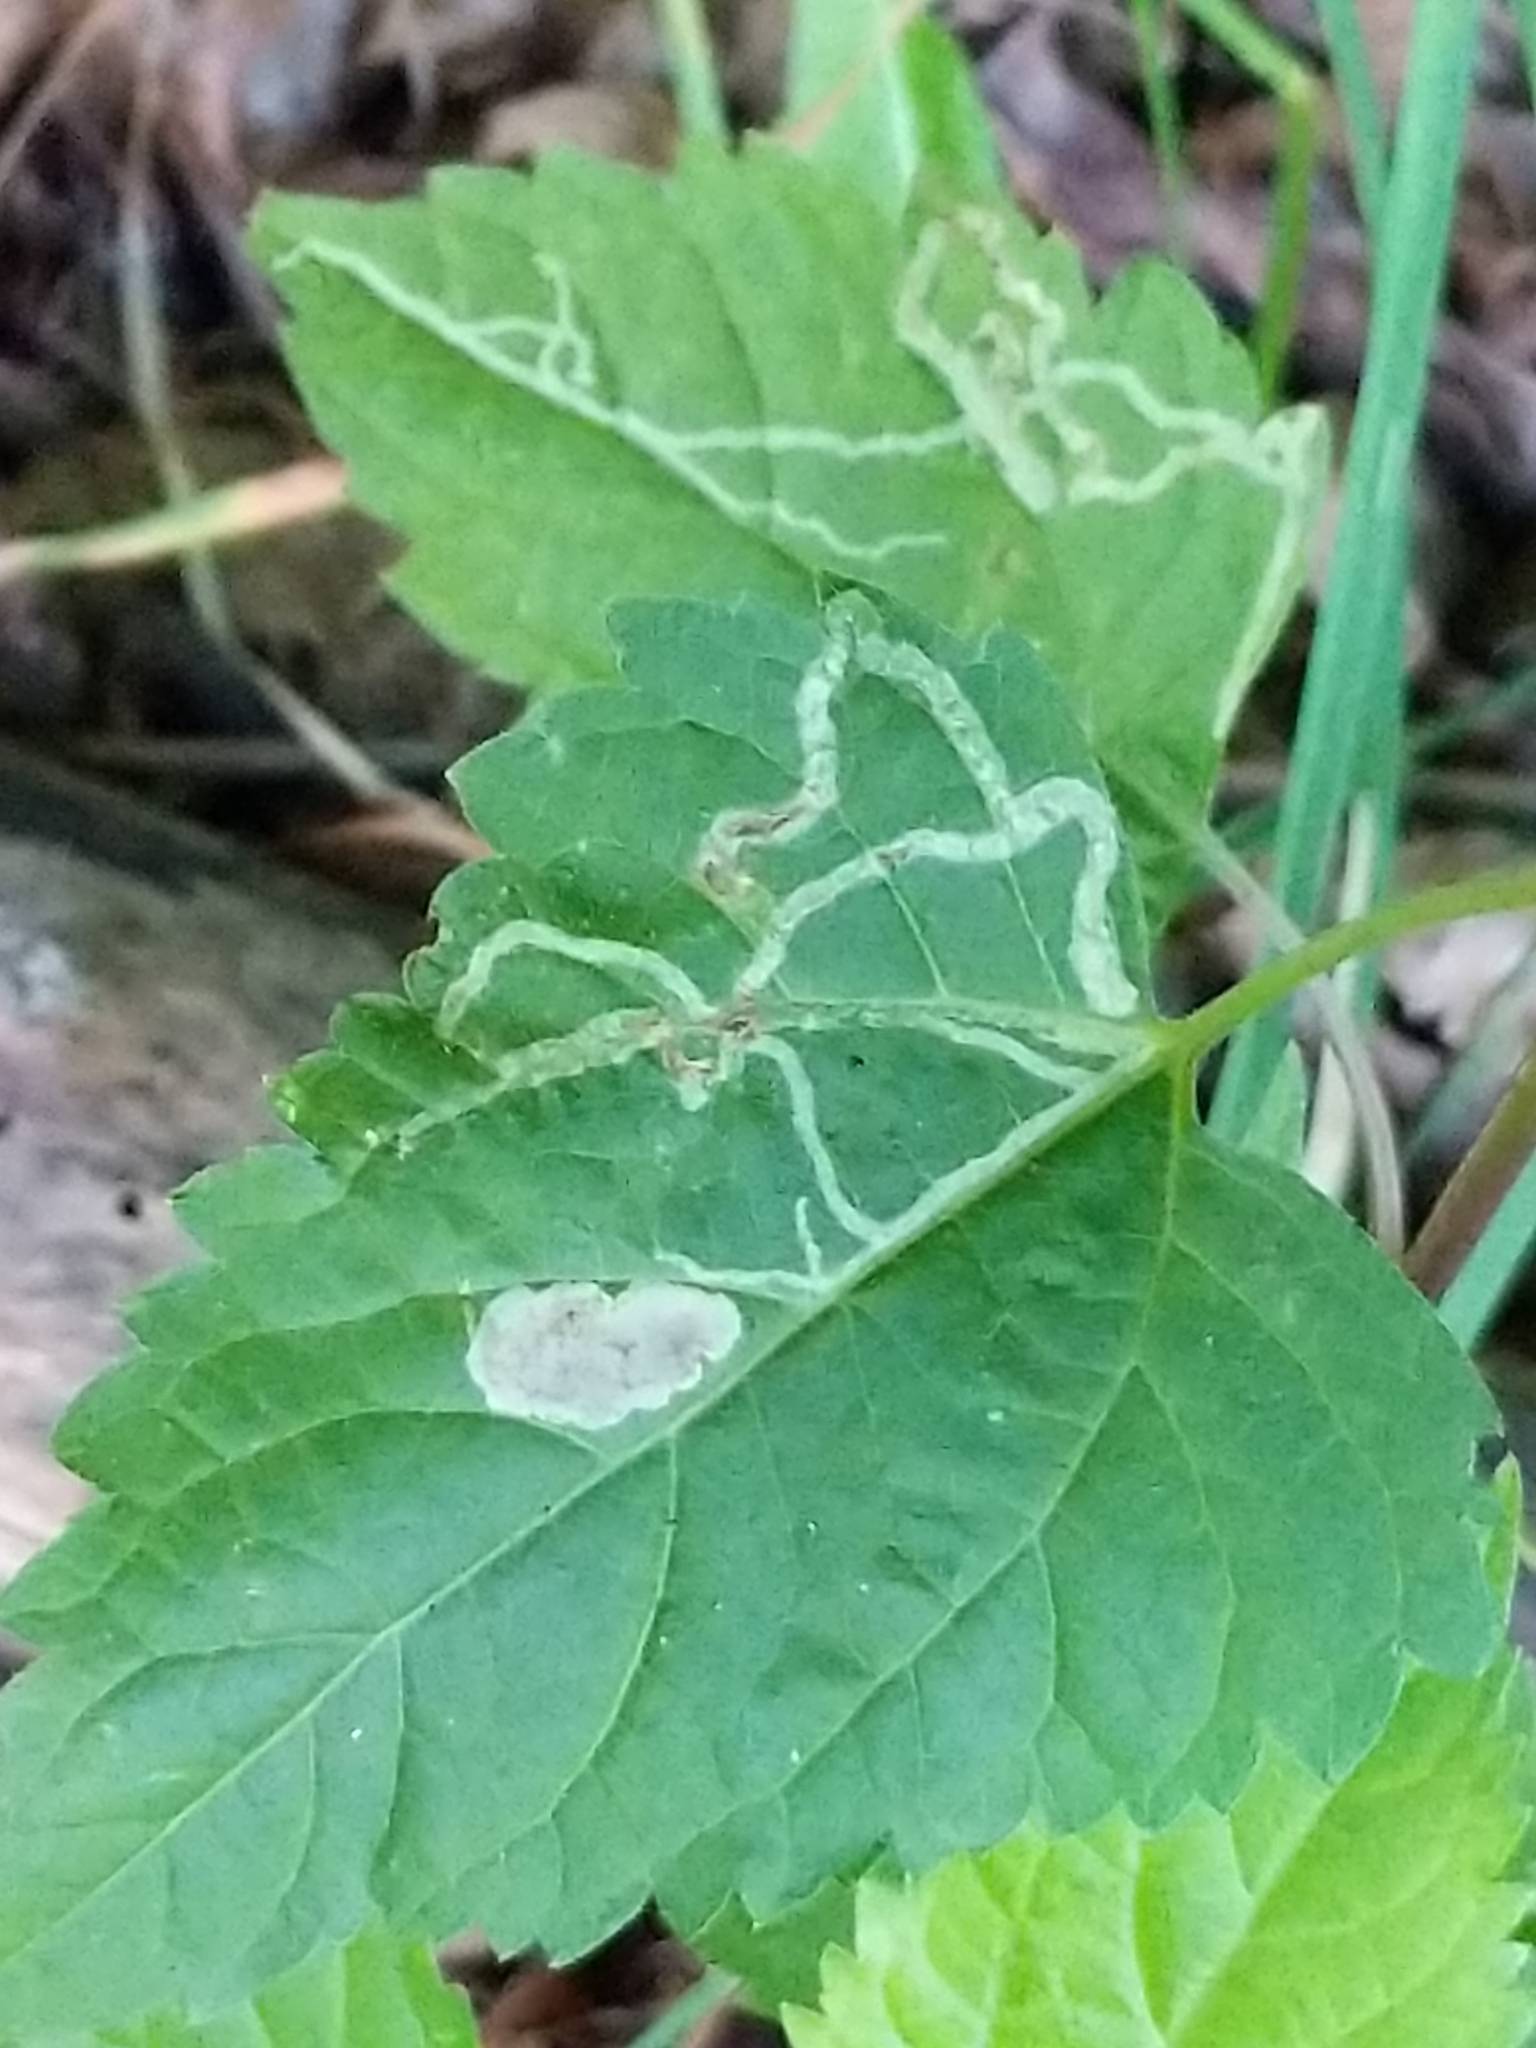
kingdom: Plantae
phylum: Tracheophyta
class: Magnoliopsida
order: Asterales
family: Asteraceae
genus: Ageratina
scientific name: Ageratina altissima
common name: White snakeroot
